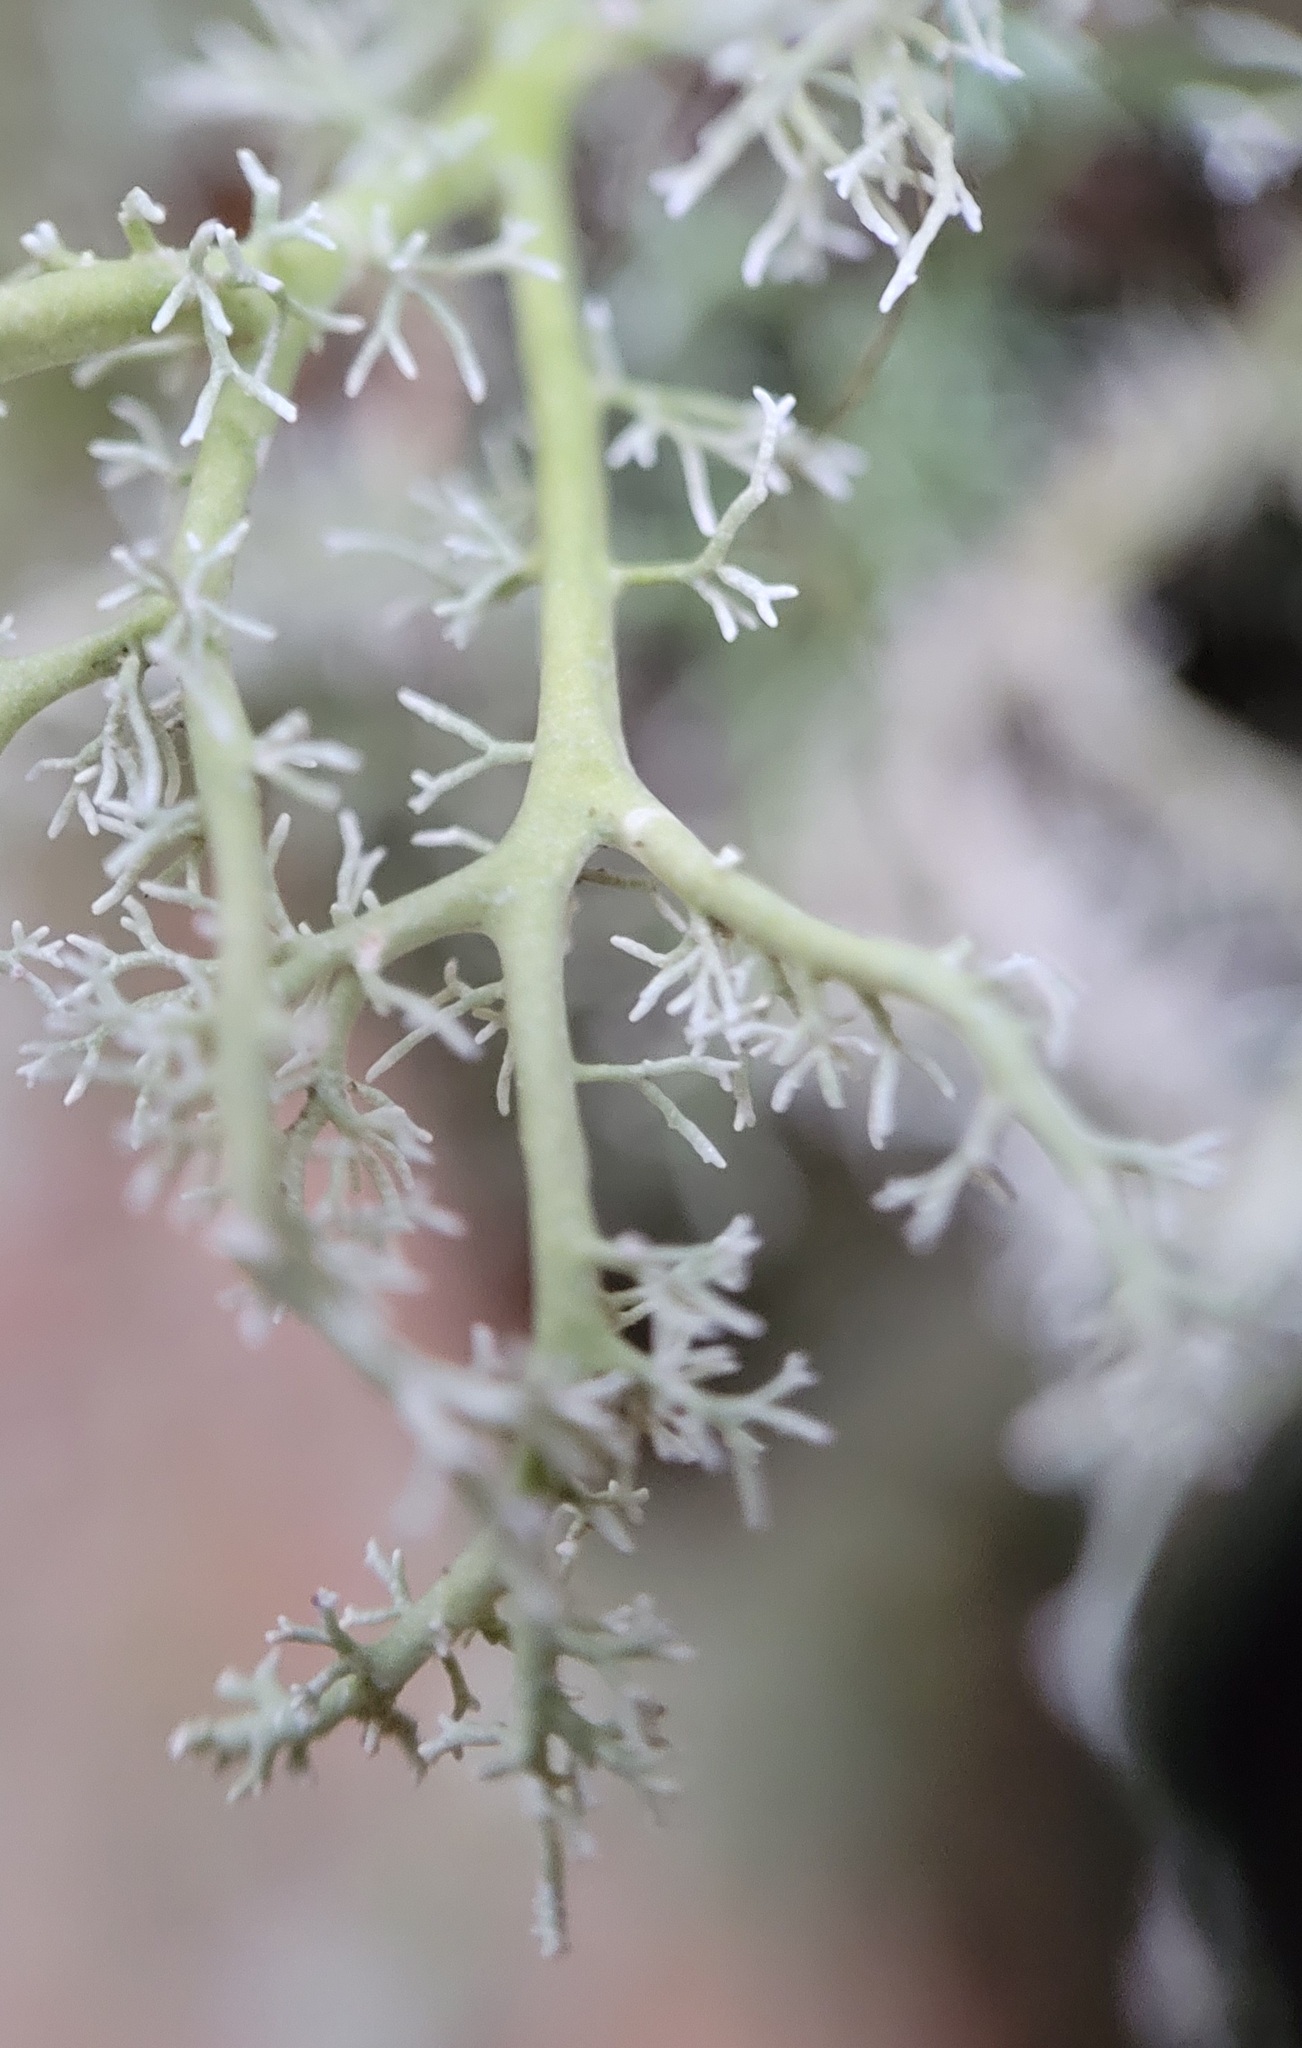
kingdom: Fungi
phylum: Ascomycota
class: Lecanoromycetes
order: Lecanorales
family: Sphaerophoraceae
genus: Sphaerophorus
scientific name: Sphaerophorus globosus
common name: Globe ball lichen
